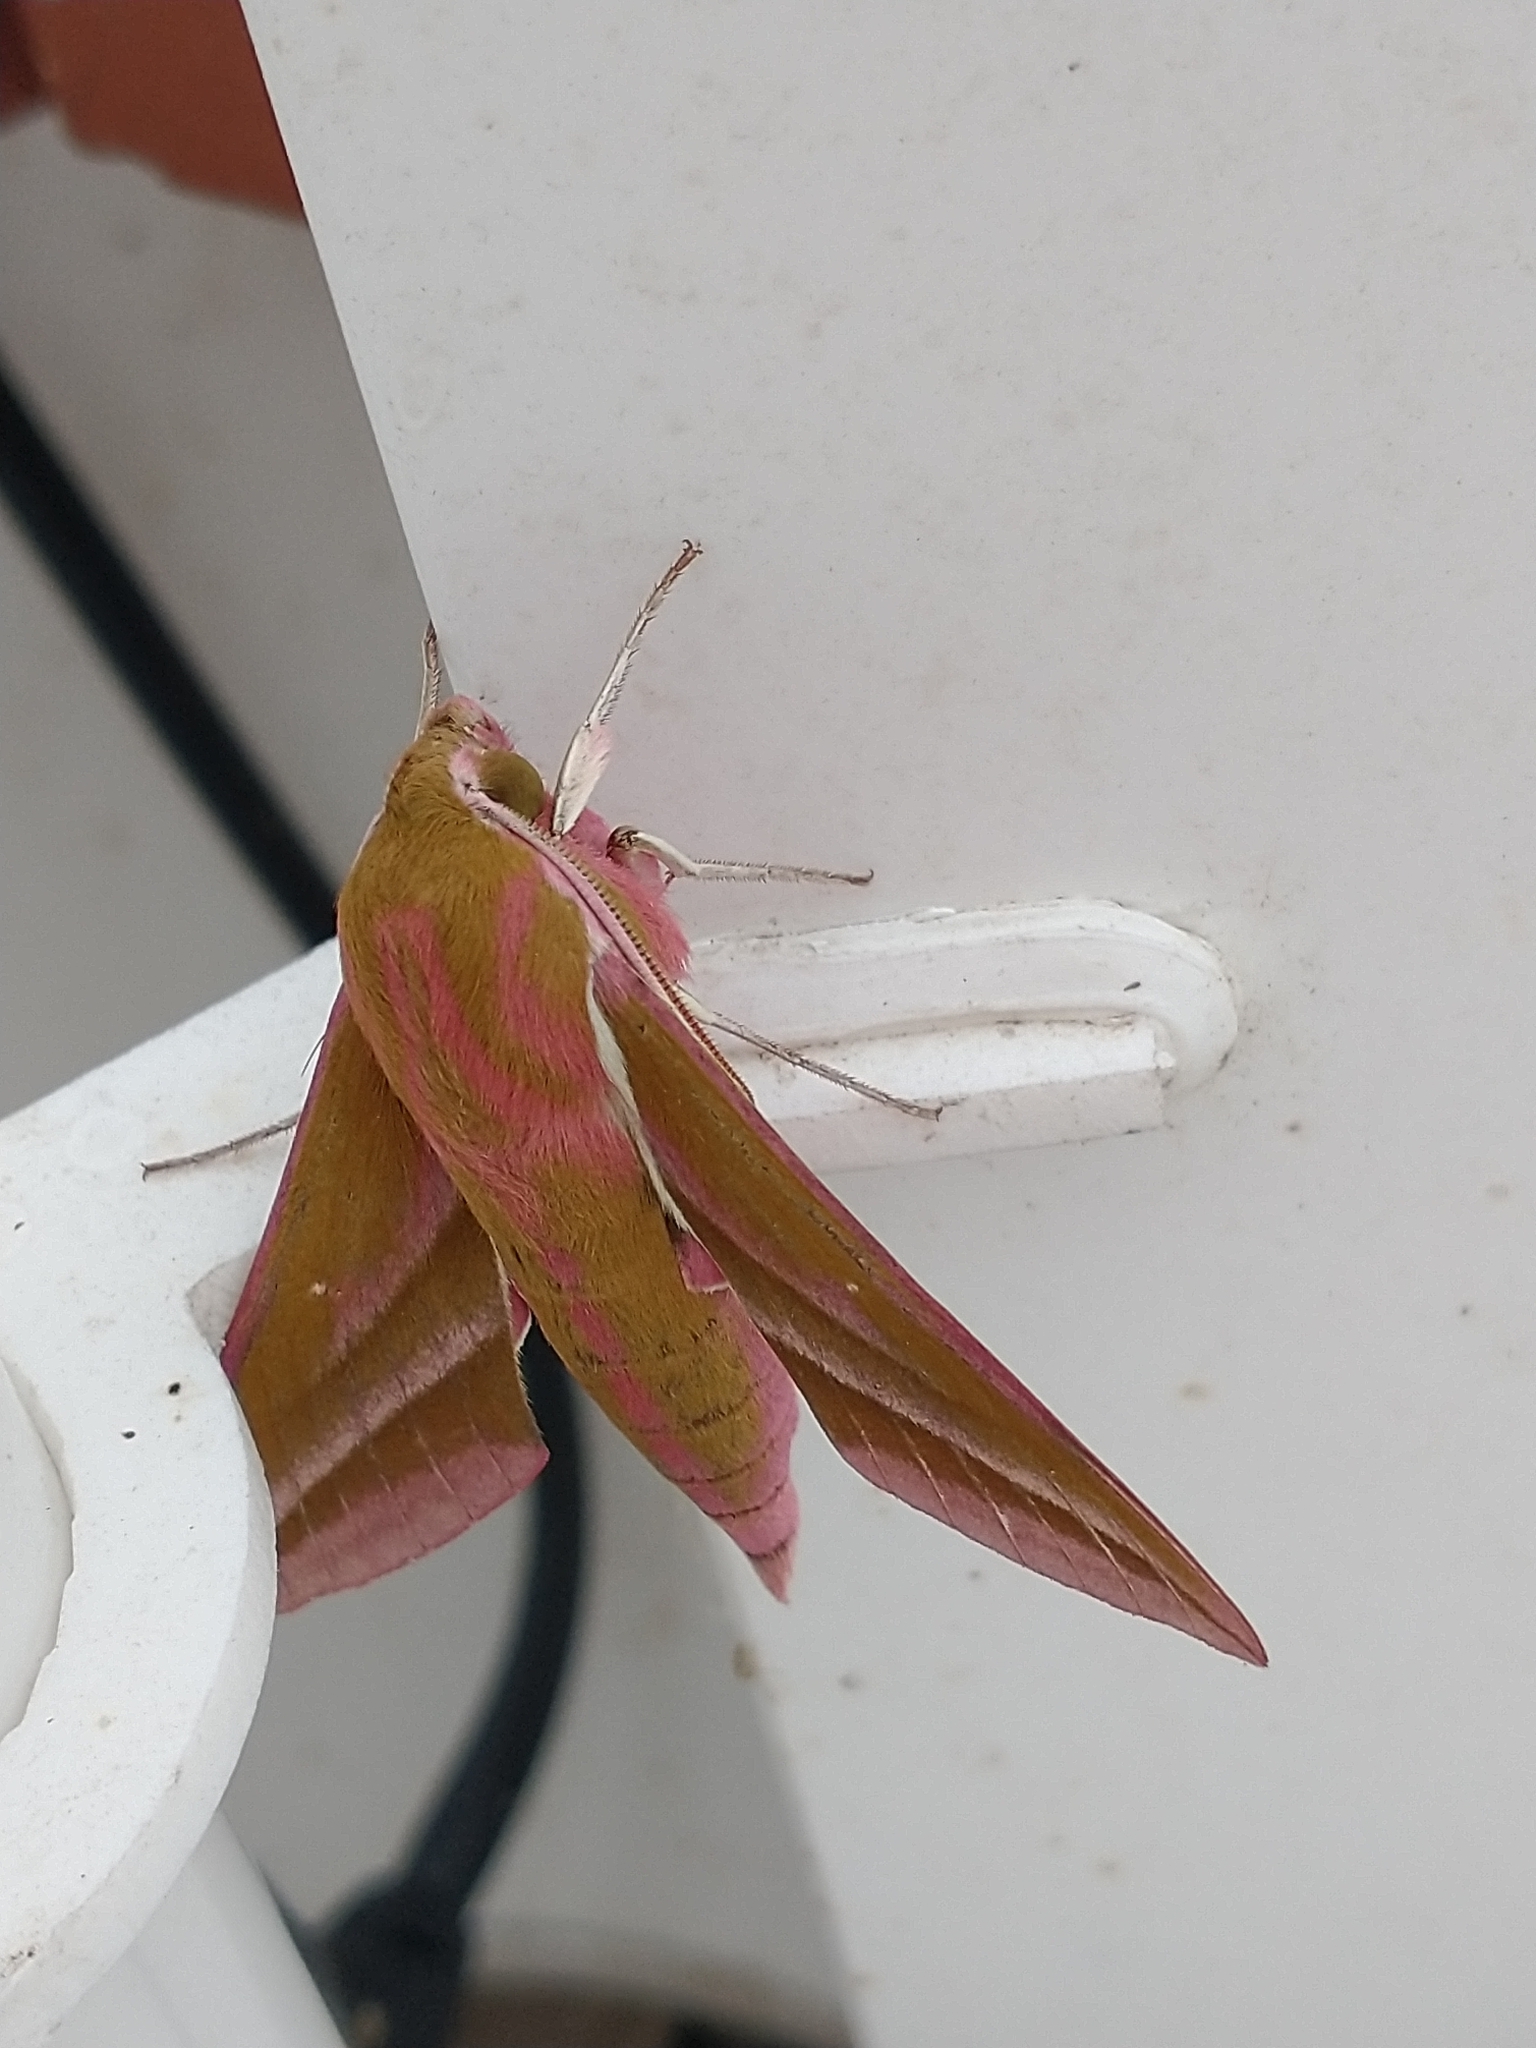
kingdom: Animalia
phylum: Arthropoda
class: Insecta
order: Lepidoptera
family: Sphingidae
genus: Deilephila
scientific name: Deilephila elpenor
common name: Elephant hawk-moth
